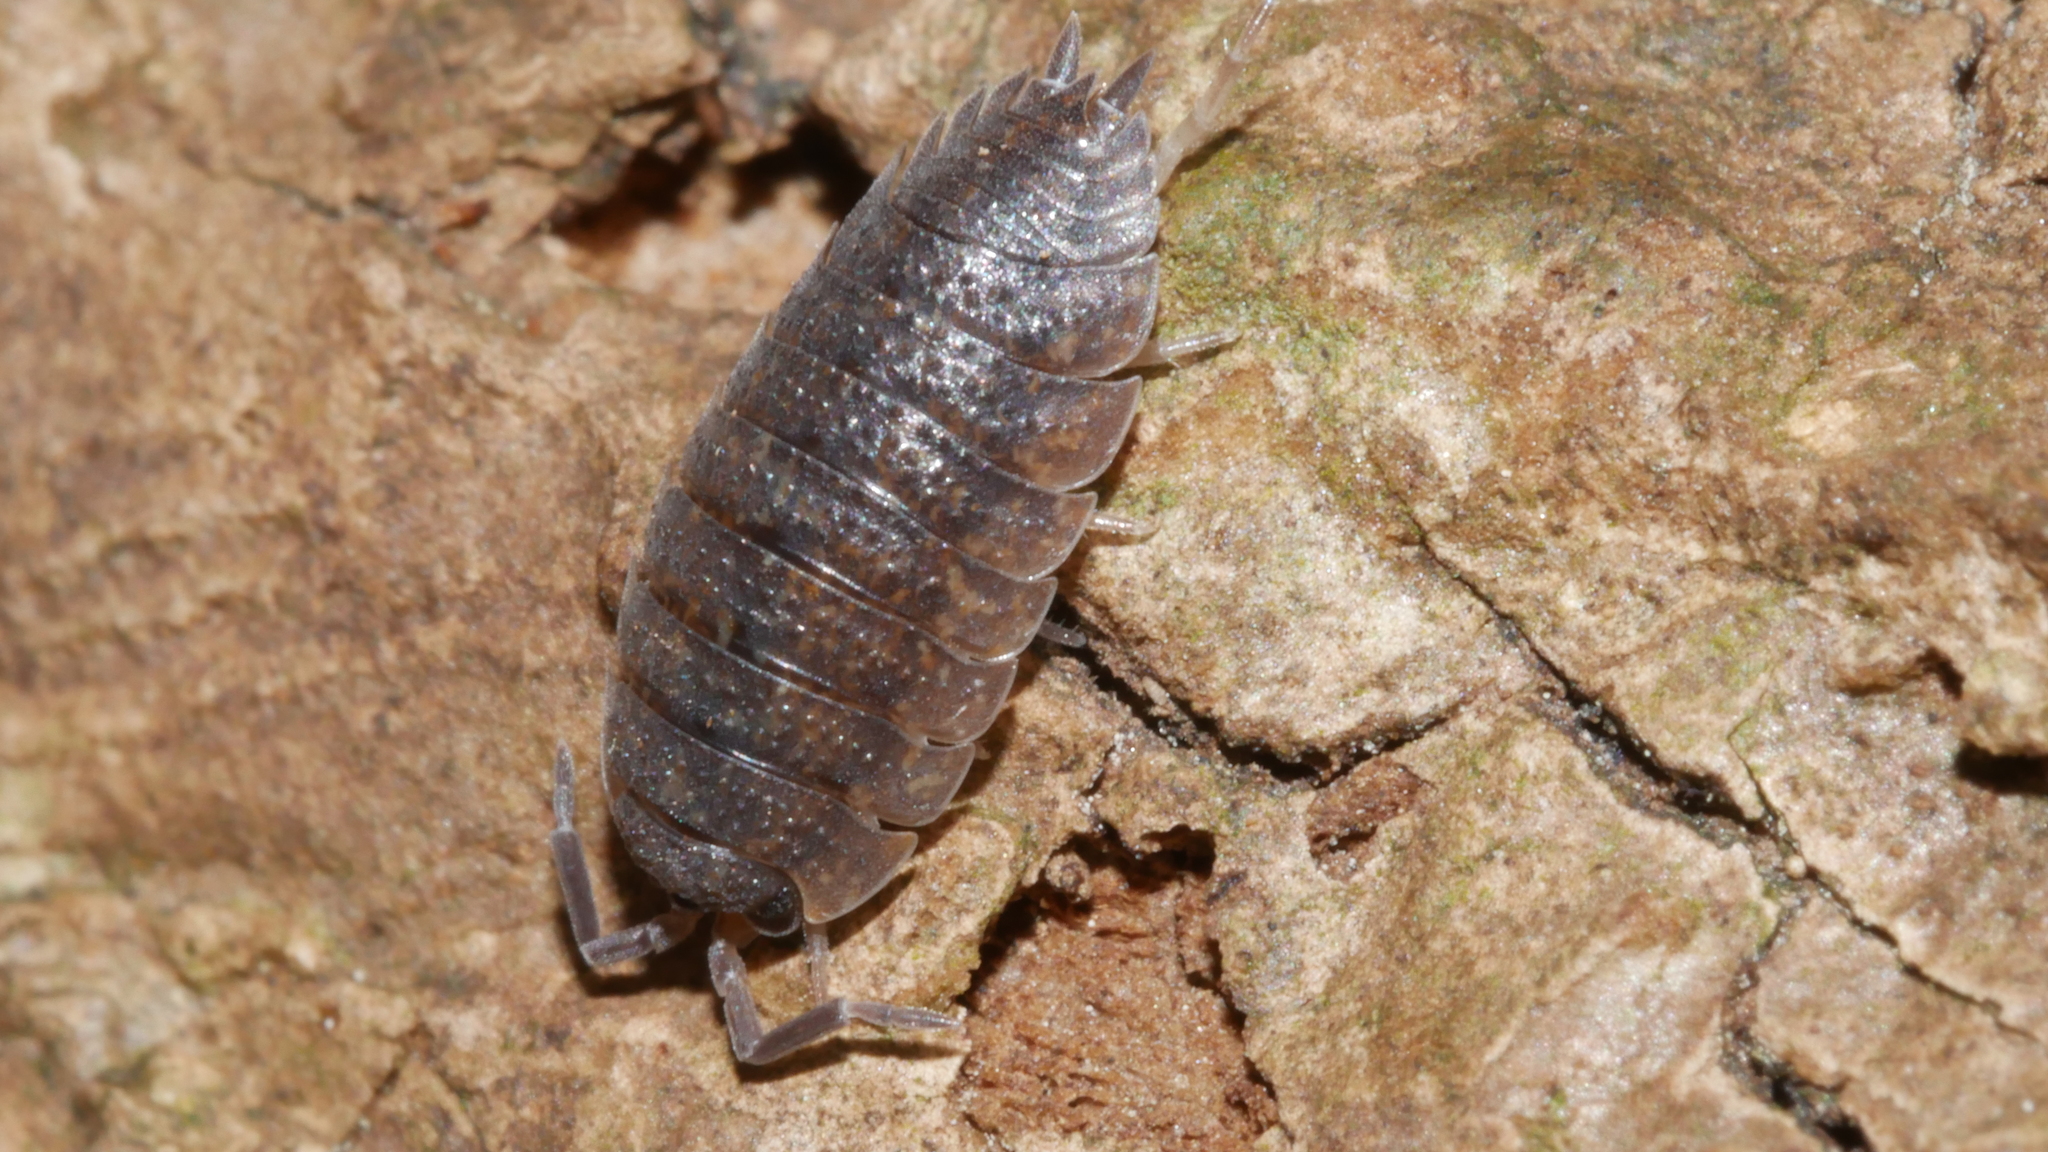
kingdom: Animalia
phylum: Arthropoda
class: Malacostraca
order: Isopoda
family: Porcellionidae
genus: Porcellio
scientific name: Porcellio scaber
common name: Common rough woodlouse
